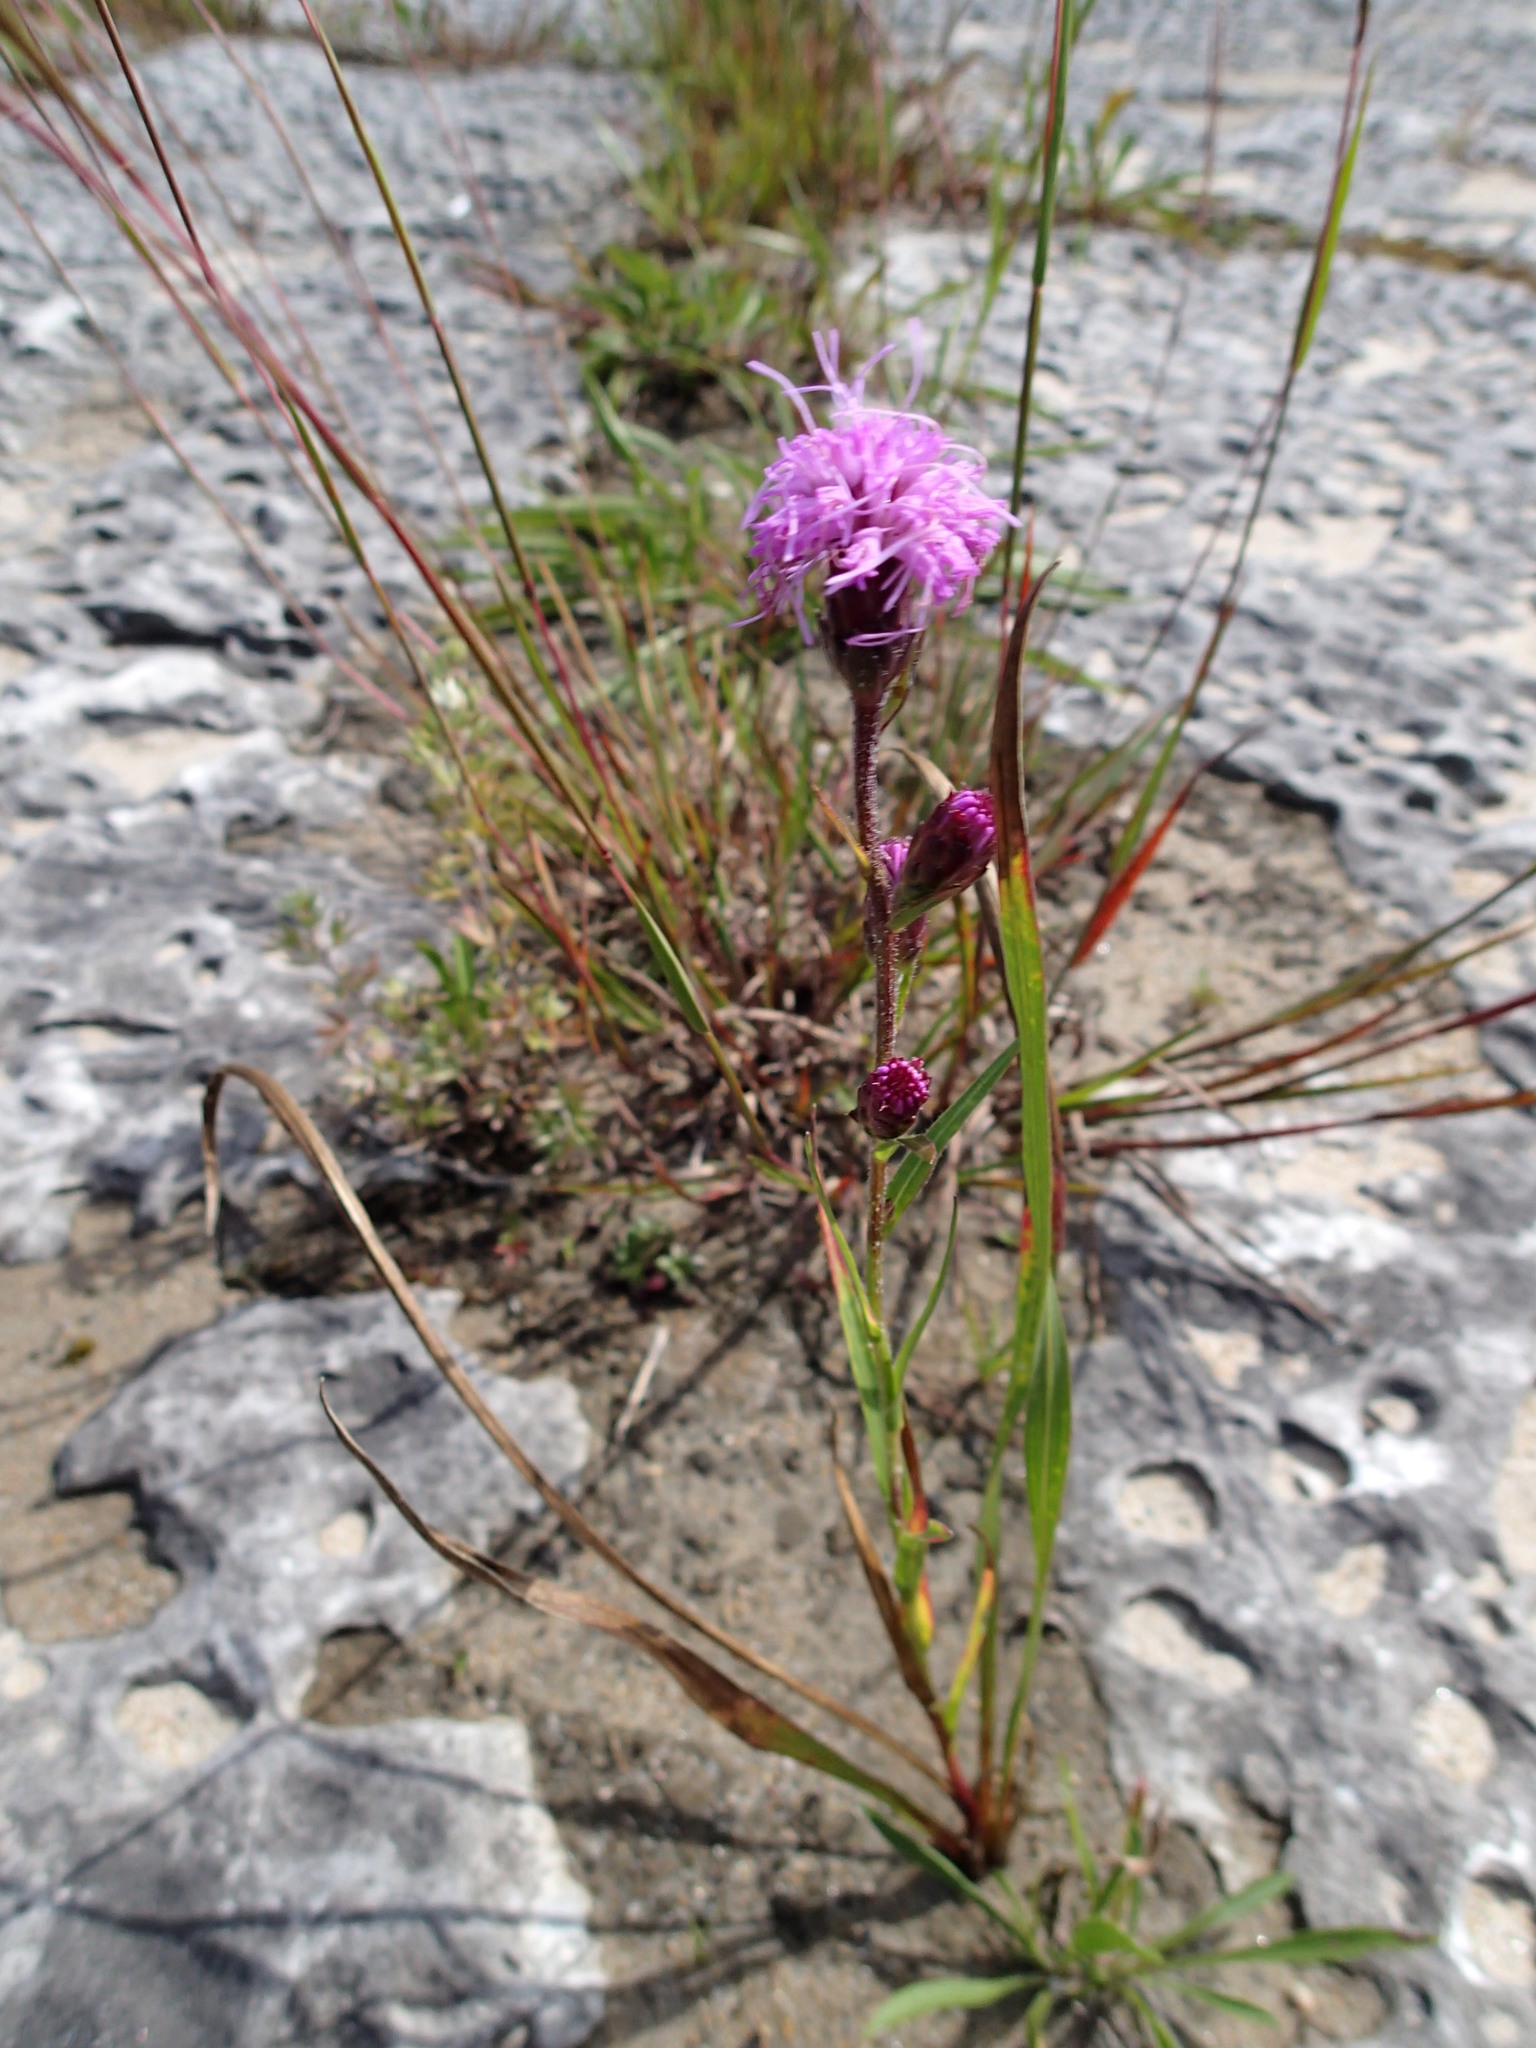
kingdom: Plantae
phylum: Tracheophyta
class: Magnoliopsida
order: Asterales
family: Asteraceae
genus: Liatris
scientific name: Liatris cylindracea
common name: Few-head blazingstar
